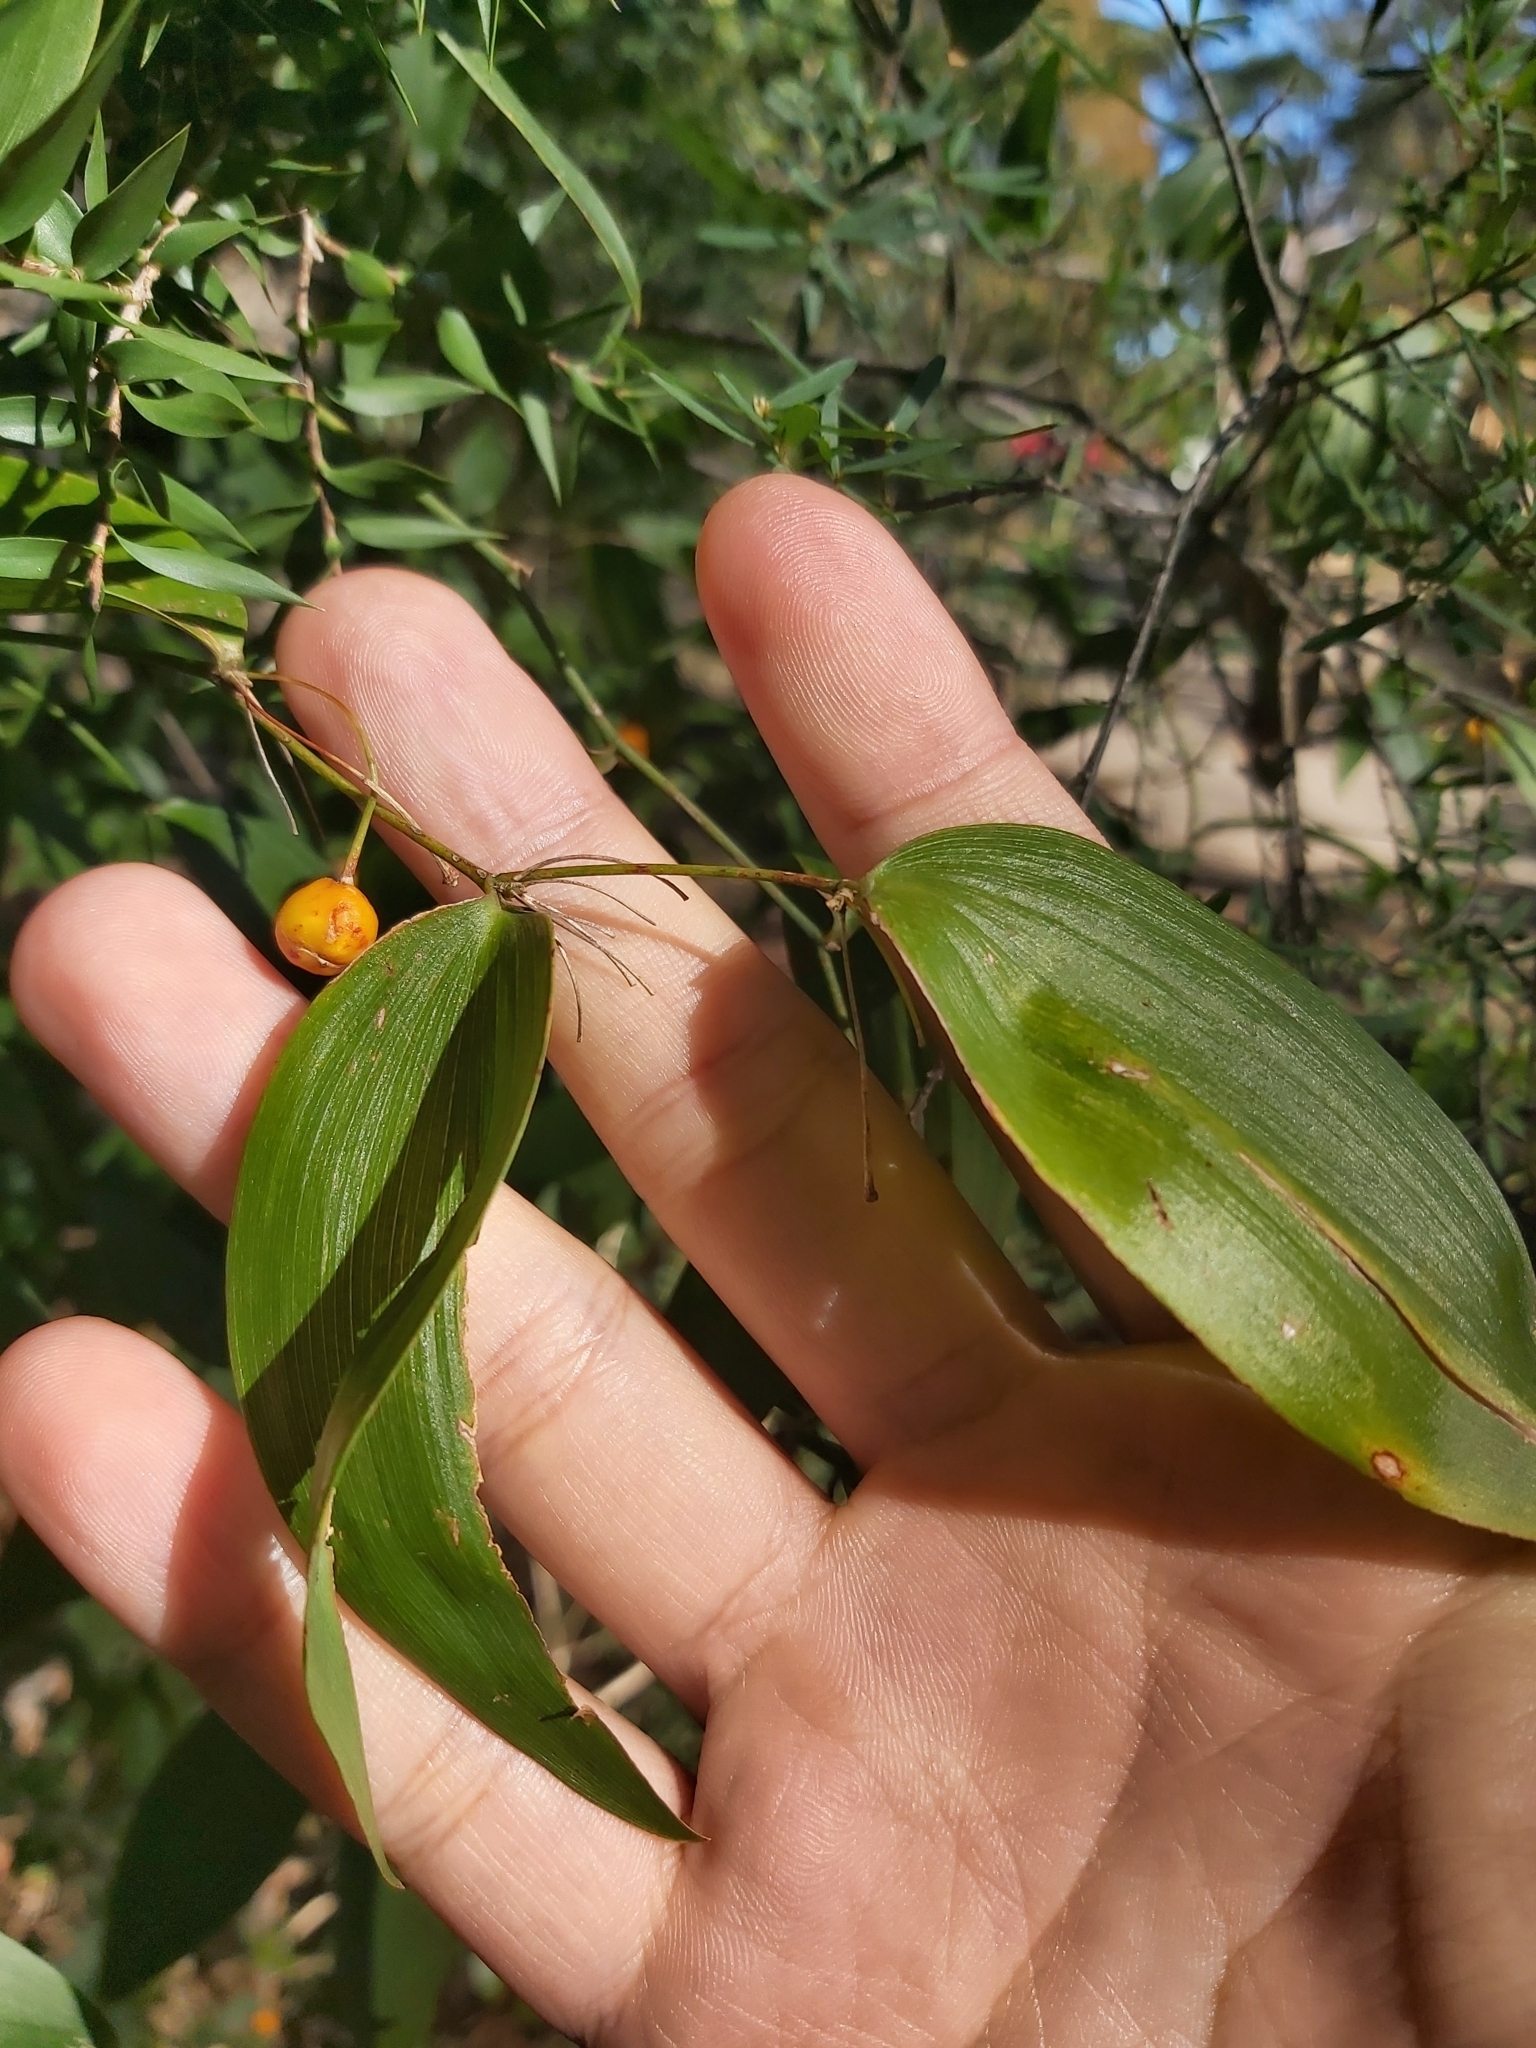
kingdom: Plantae
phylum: Tracheophyta
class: Liliopsida
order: Asparagales
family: Asparagaceae
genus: Eustrephus
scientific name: Eustrephus latifolius
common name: Orangevine
